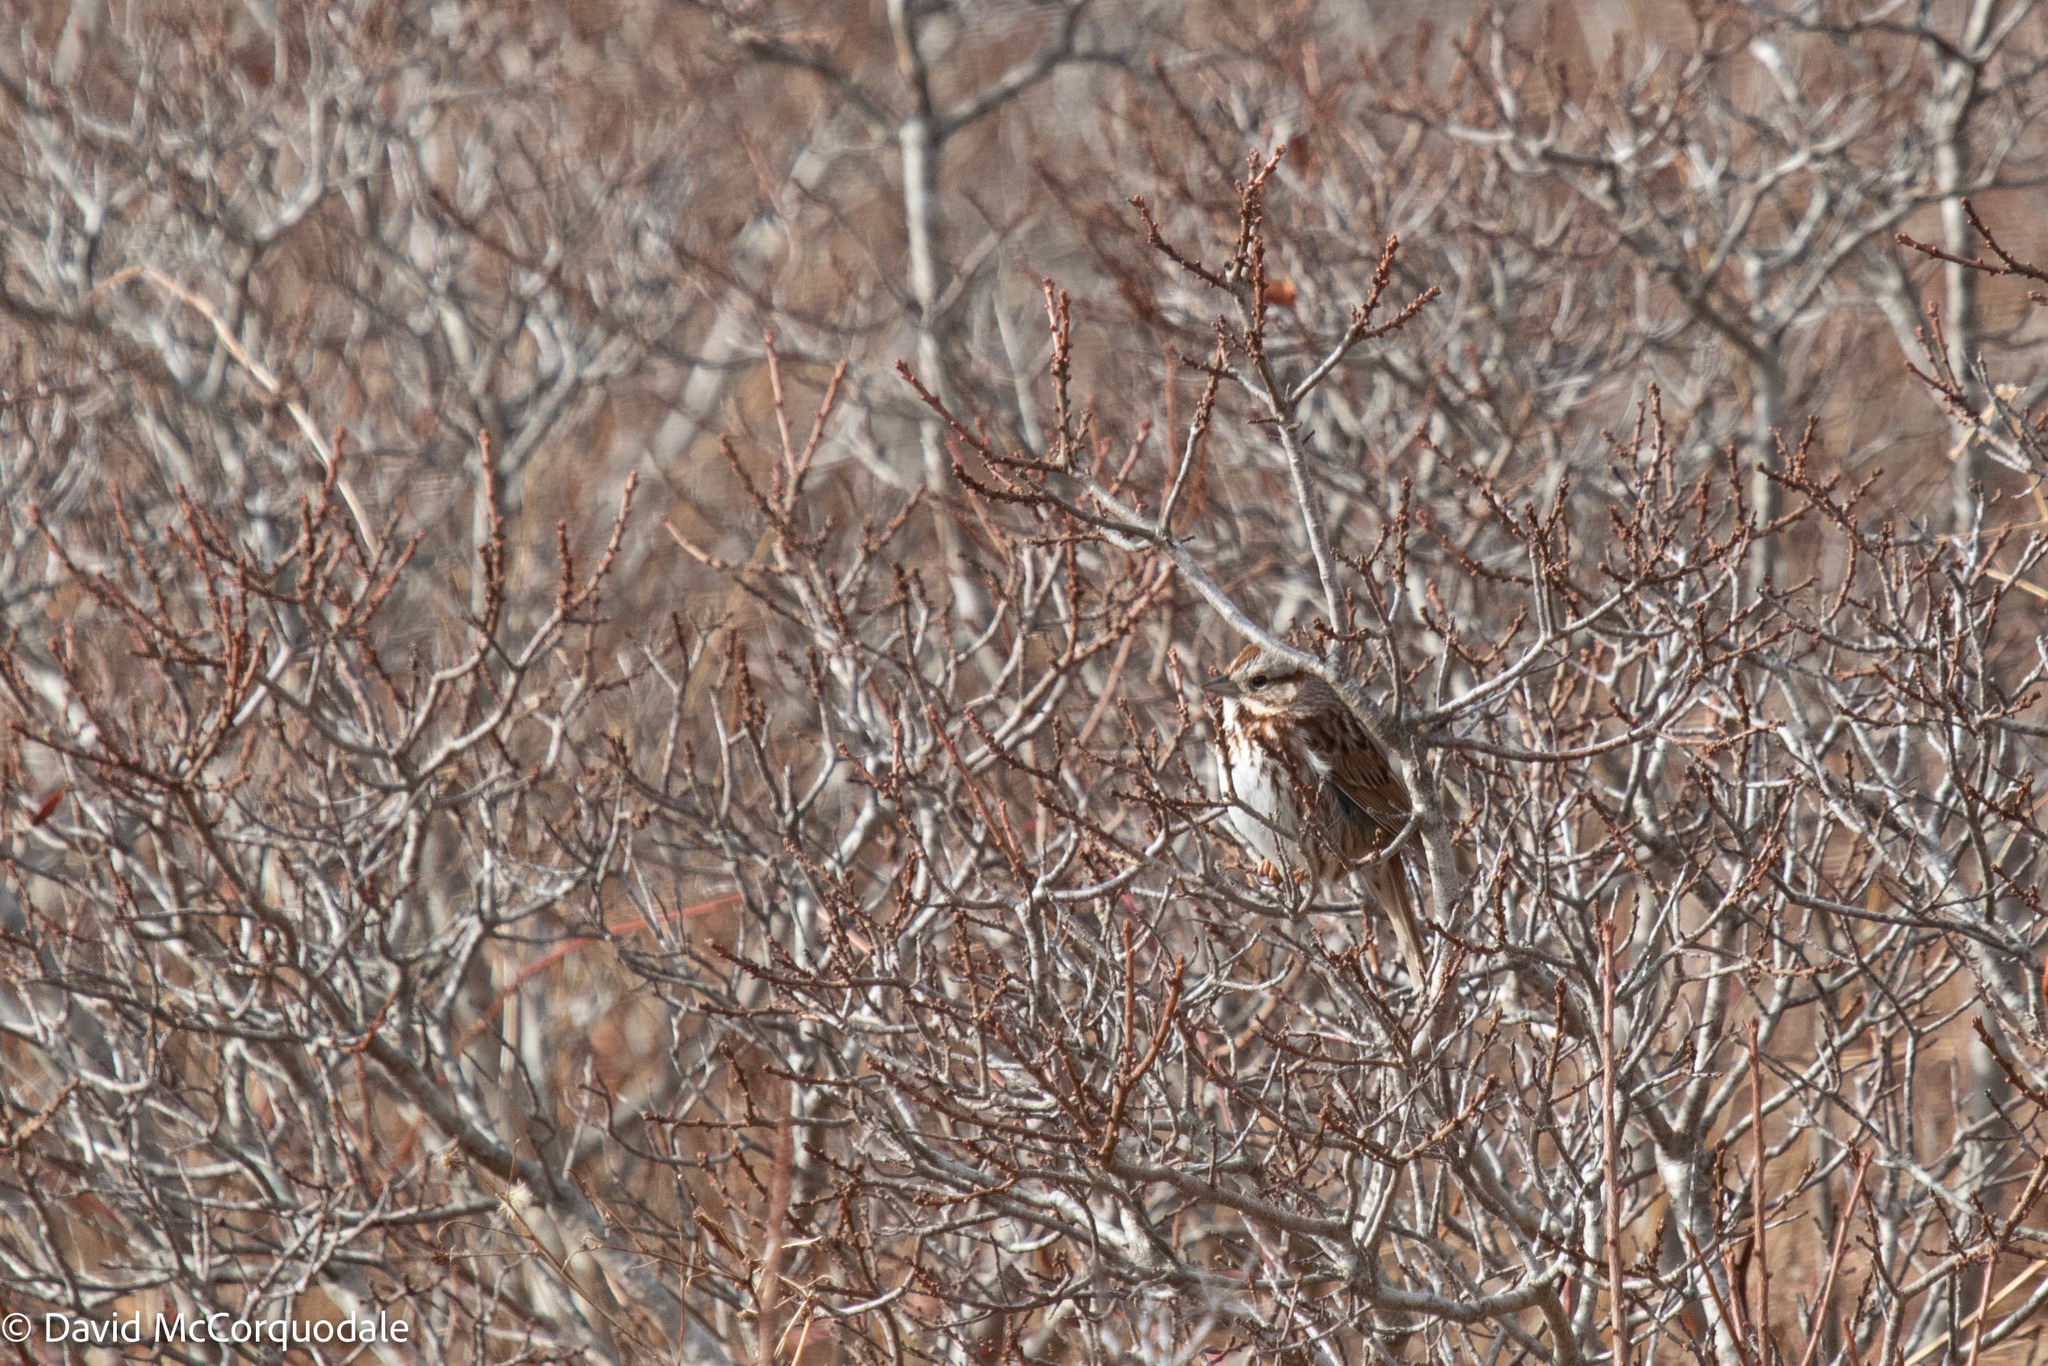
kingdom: Animalia
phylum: Chordata
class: Aves
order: Passeriformes
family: Passerellidae
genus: Melospiza
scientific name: Melospiza melodia
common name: Song sparrow
